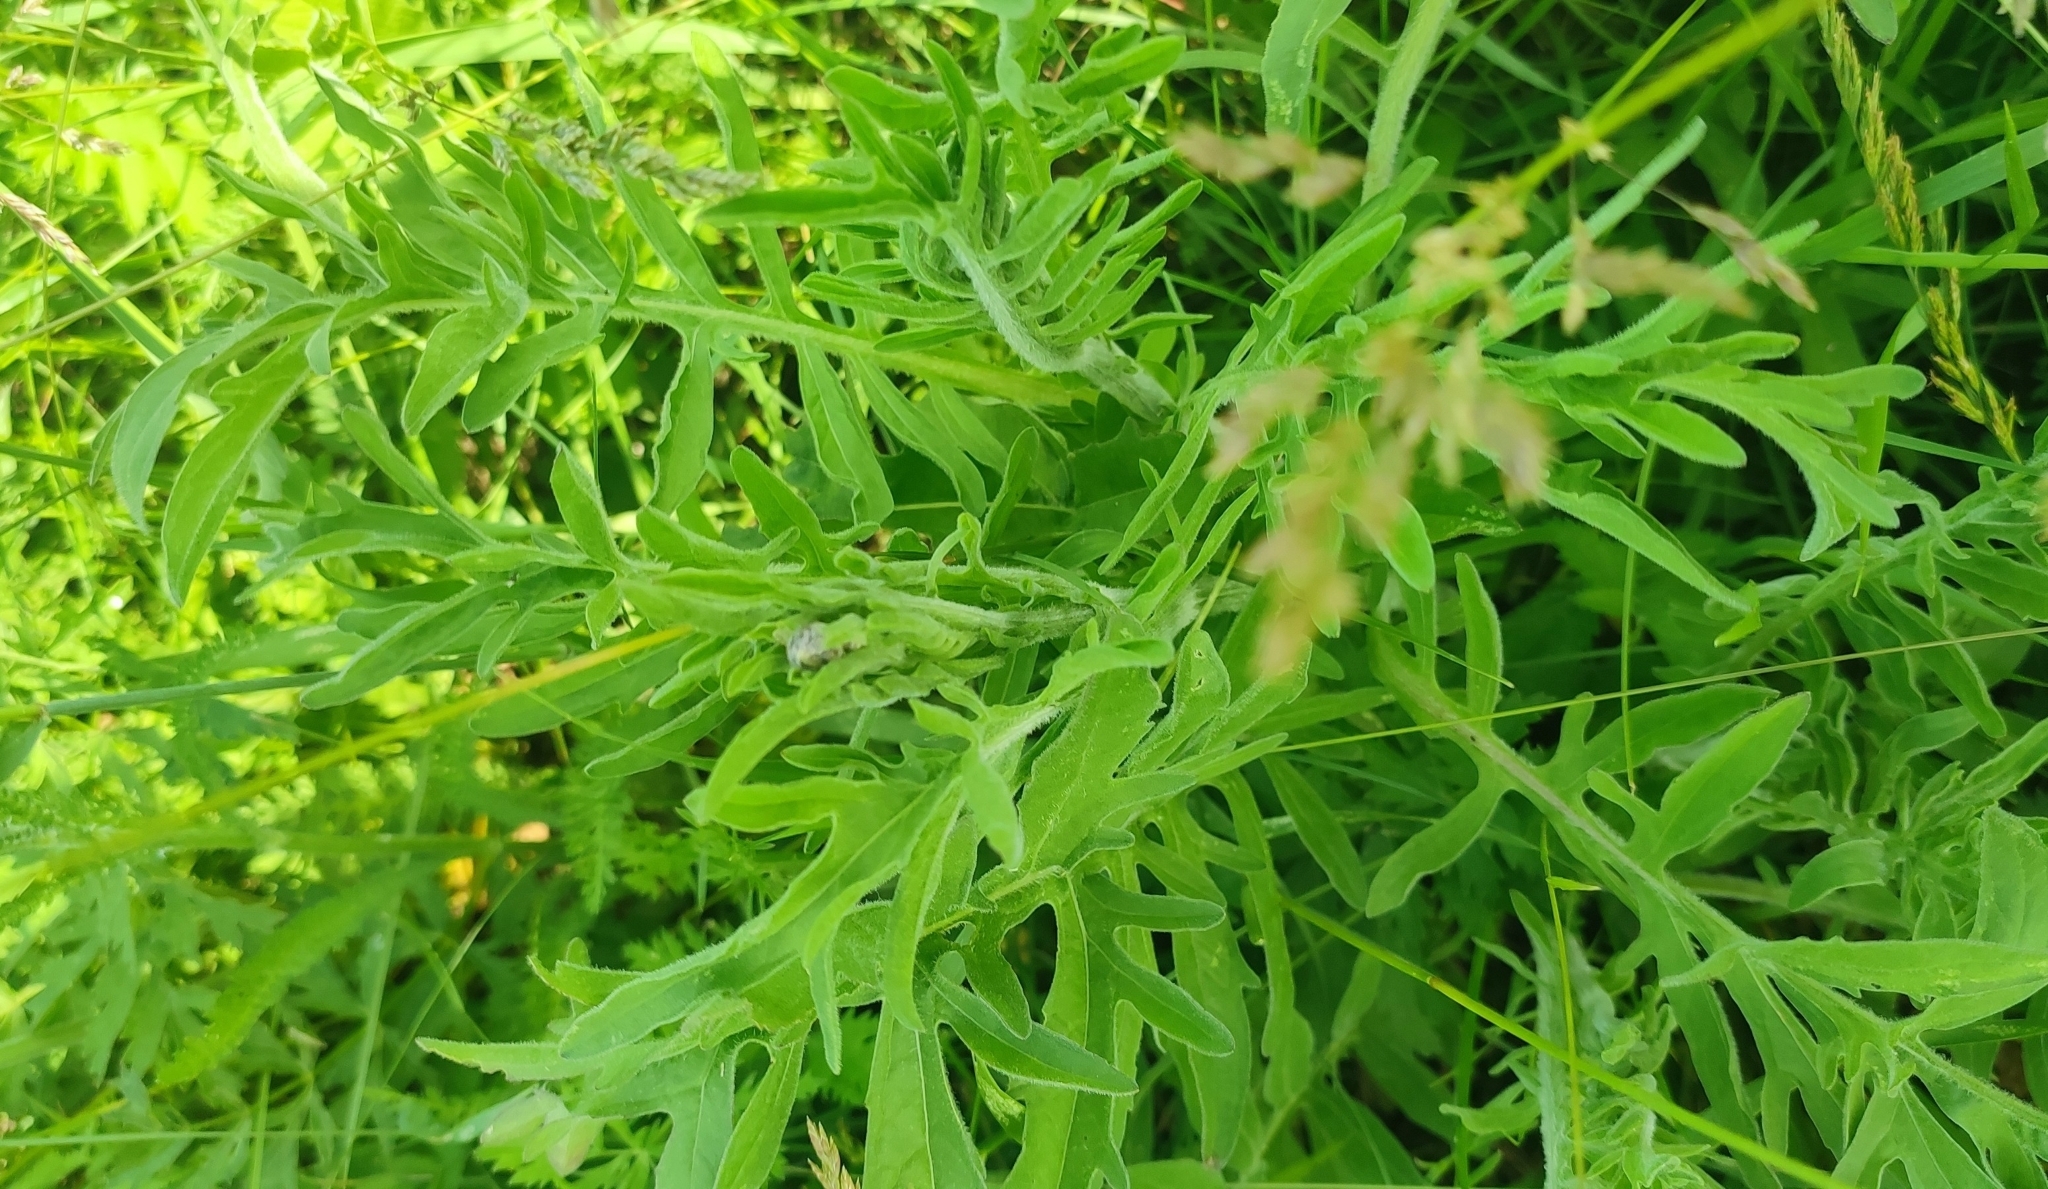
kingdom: Plantae
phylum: Tracheophyta
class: Magnoliopsida
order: Asterales
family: Asteraceae
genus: Centaurea
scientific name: Centaurea scabiosa
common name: Greater knapweed
